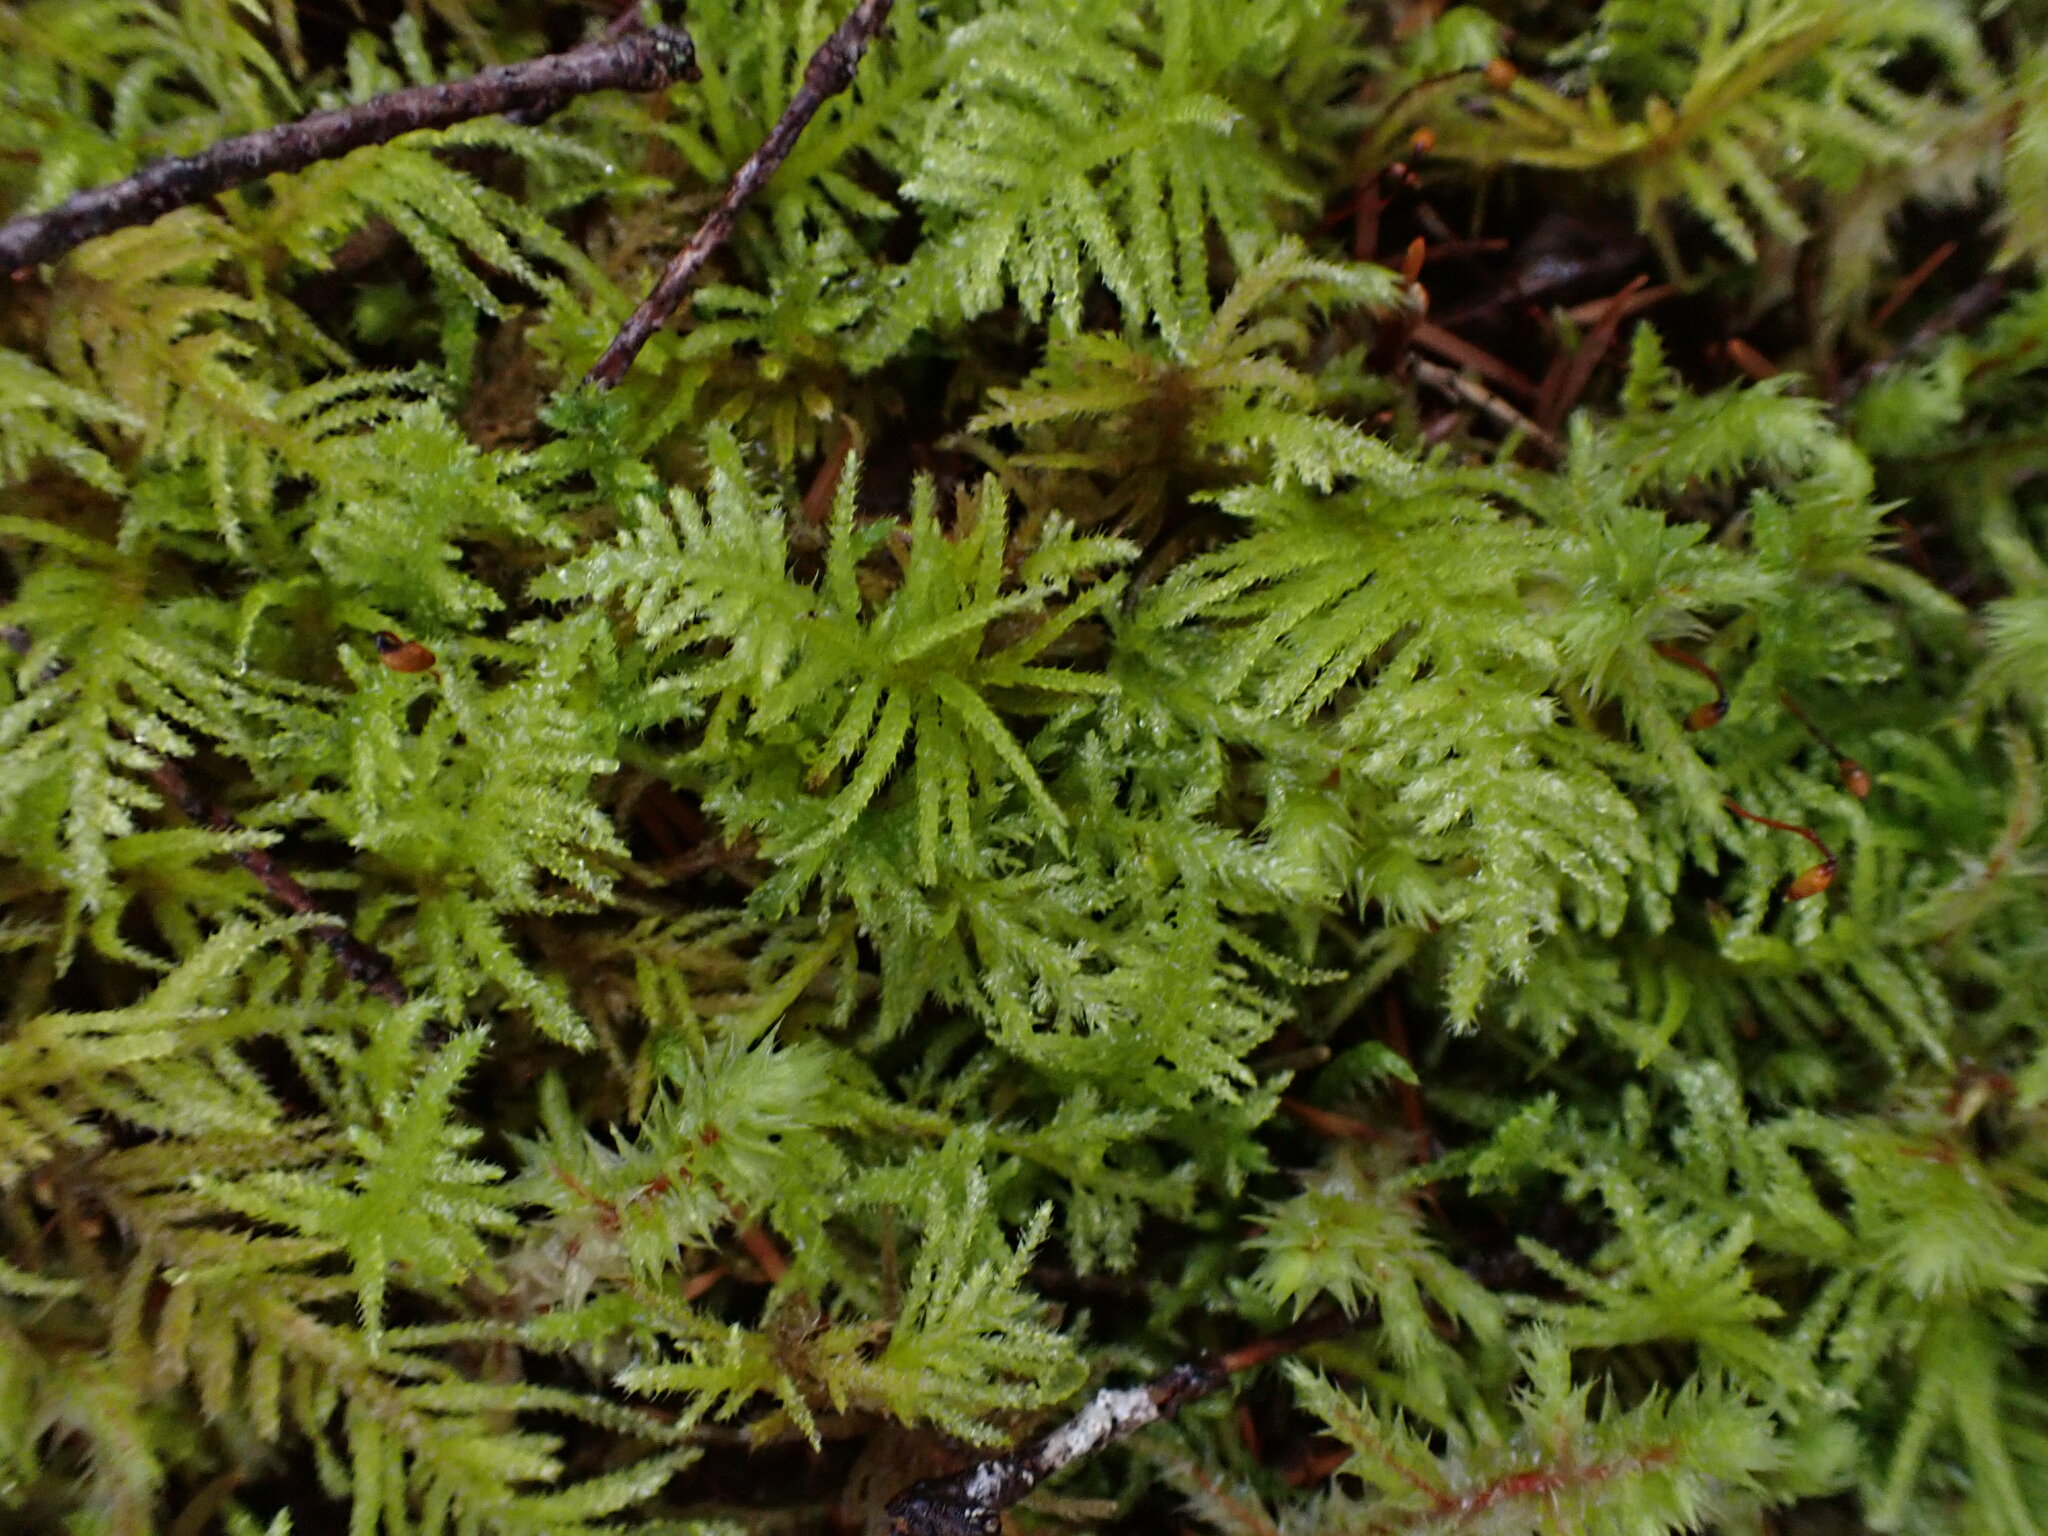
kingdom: Plantae
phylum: Bryophyta
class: Bryopsida
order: Hypnales
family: Brachytheciaceae
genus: Kindbergia
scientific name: Kindbergia oregana
